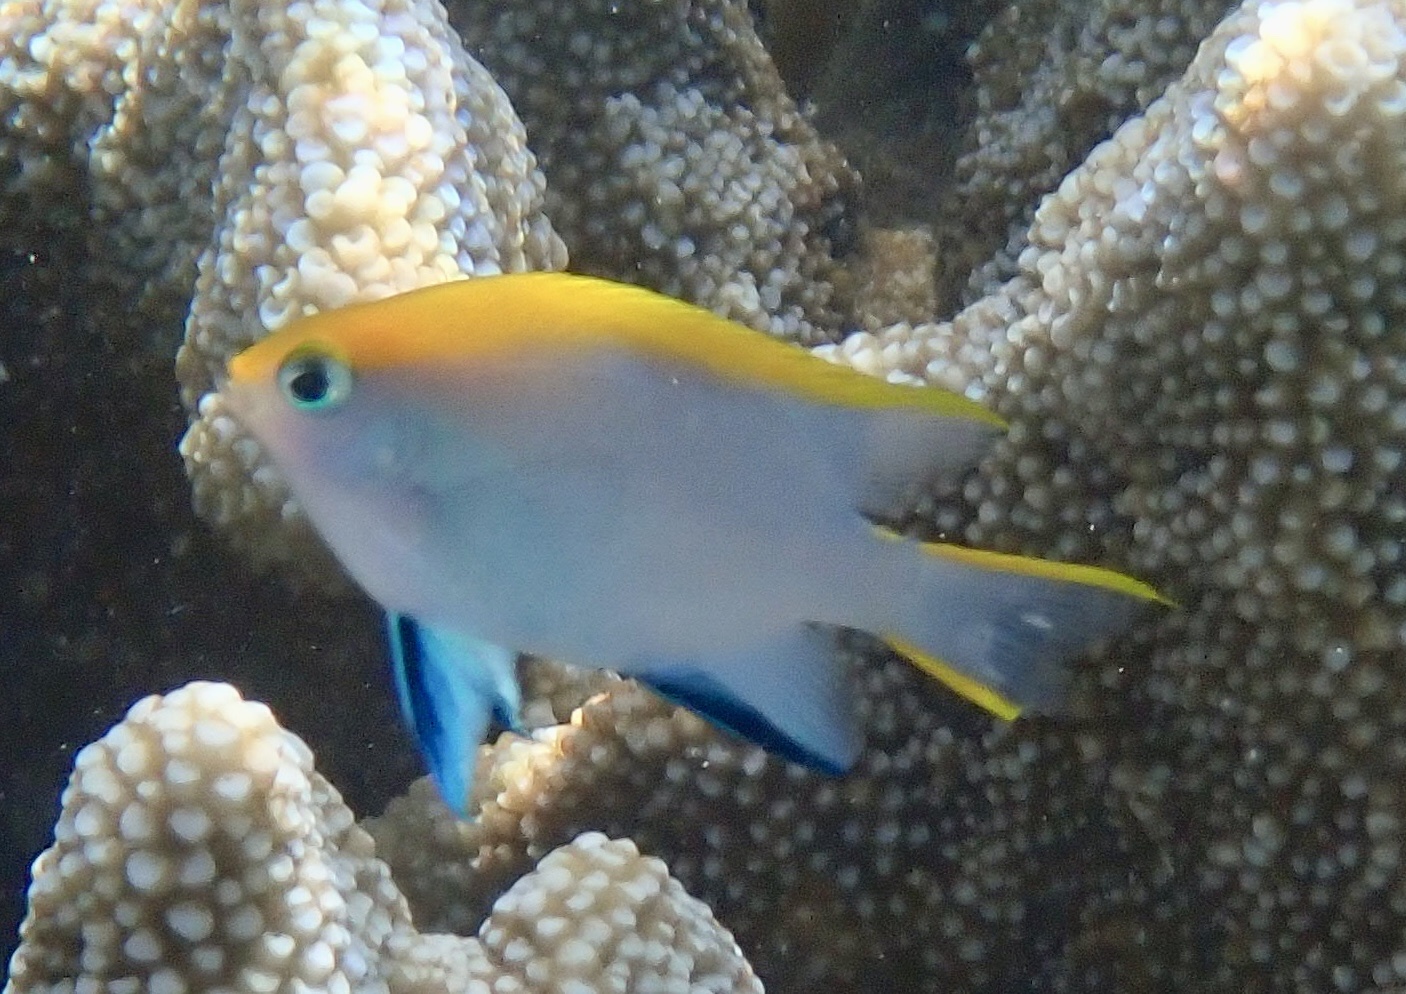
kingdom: Animalia
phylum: Chordata
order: Perciformes
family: Pomacentridae
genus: Neoglyphidodon
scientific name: Neoglyphidodon melas
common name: Black damsel
